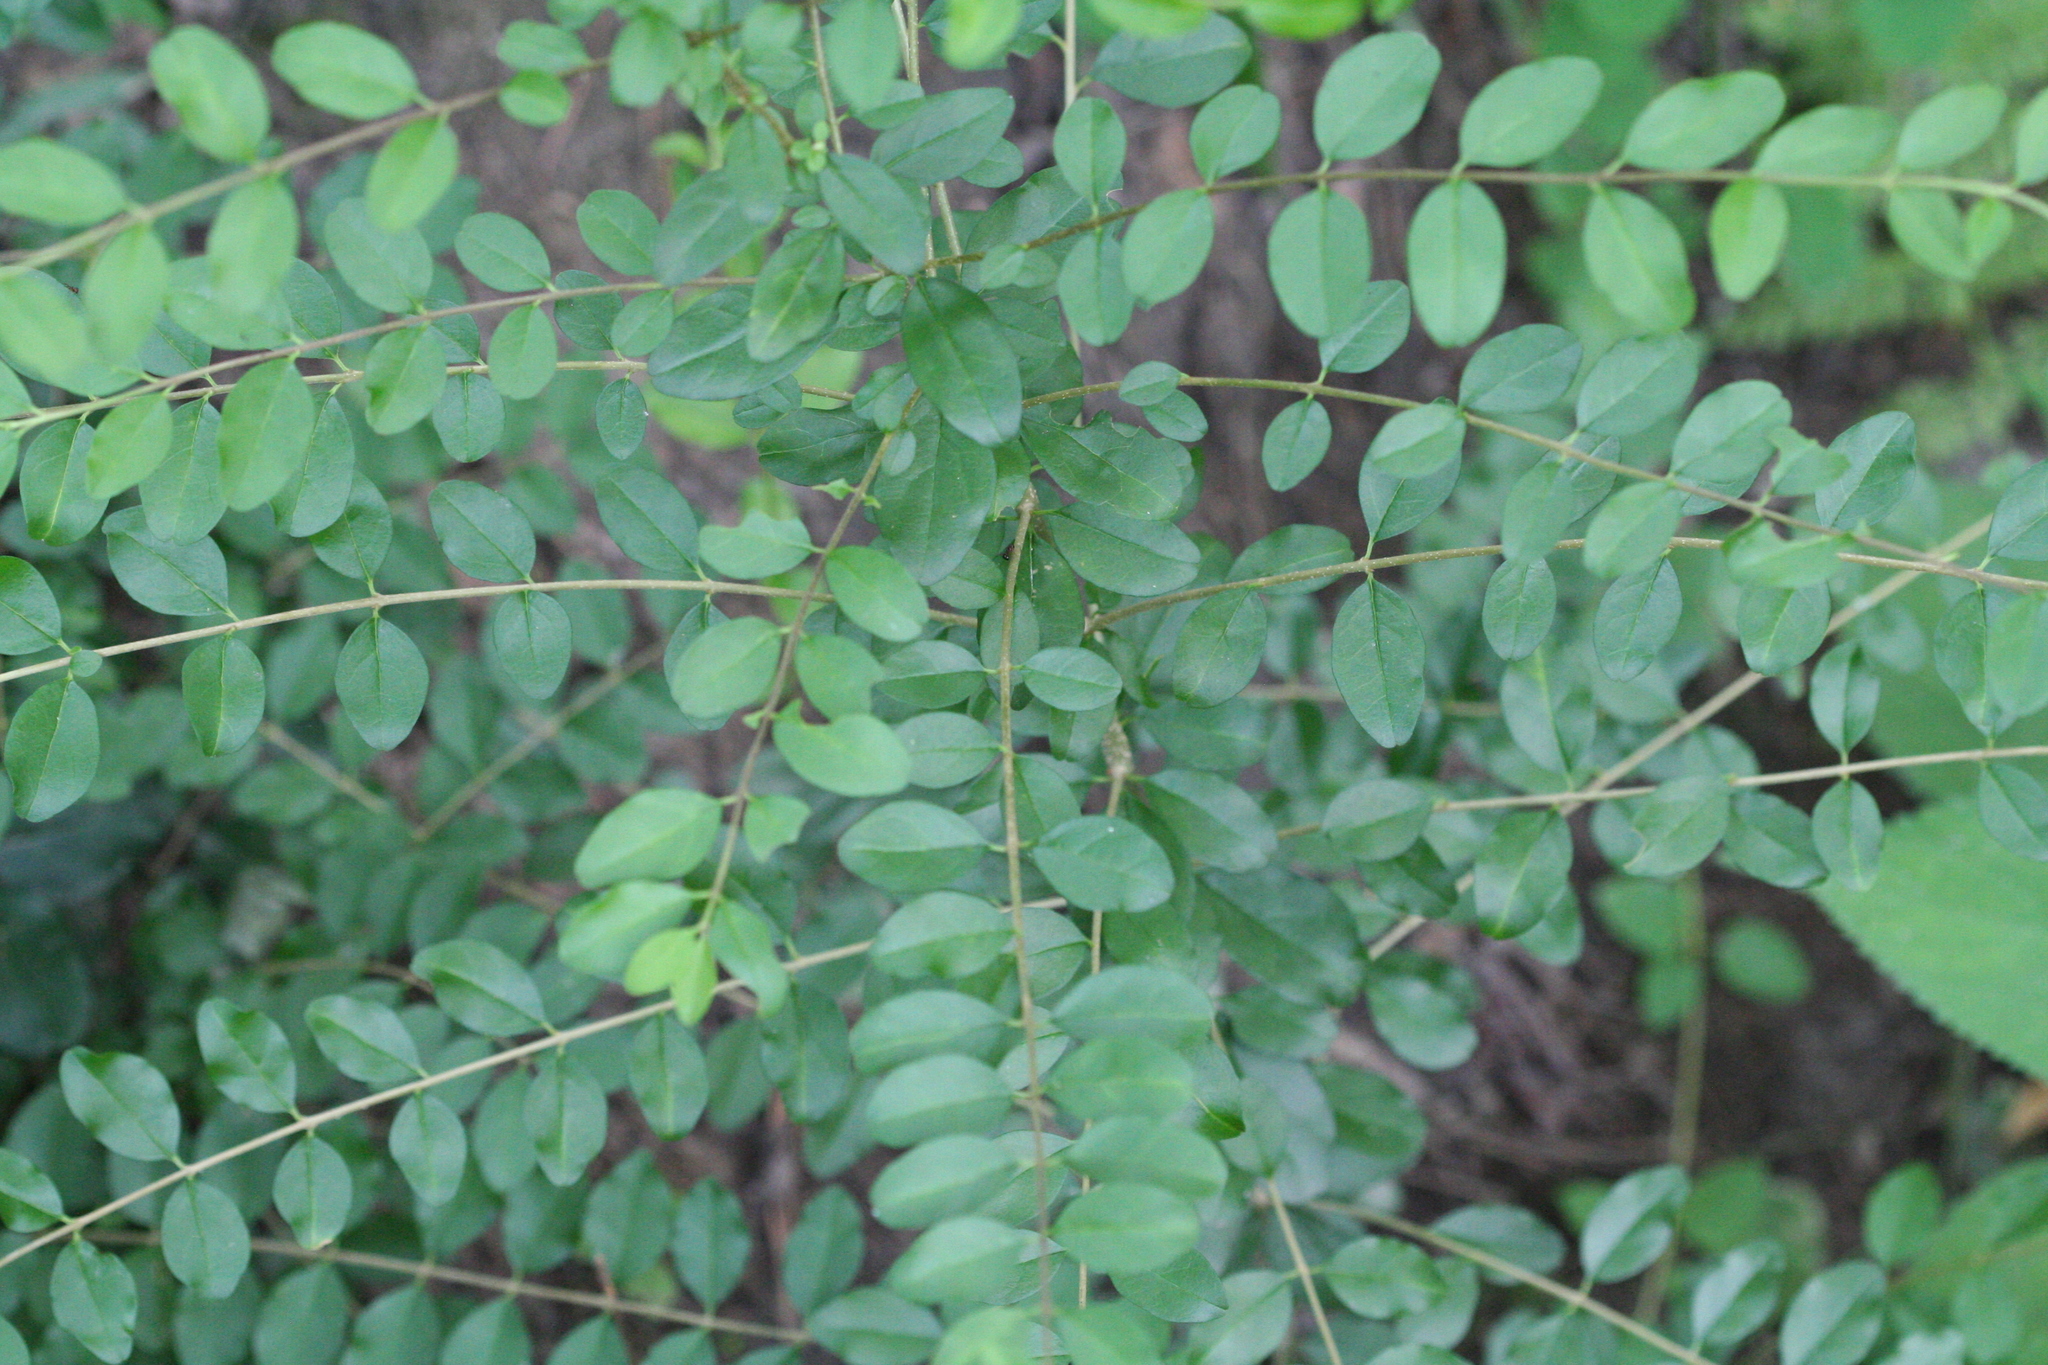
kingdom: Plantae
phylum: Tracheophyta
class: Magnoliopsida
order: Lamiales
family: Oleaceae
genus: Ligustrum
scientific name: Ligustrum sinense
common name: Chinese privet
